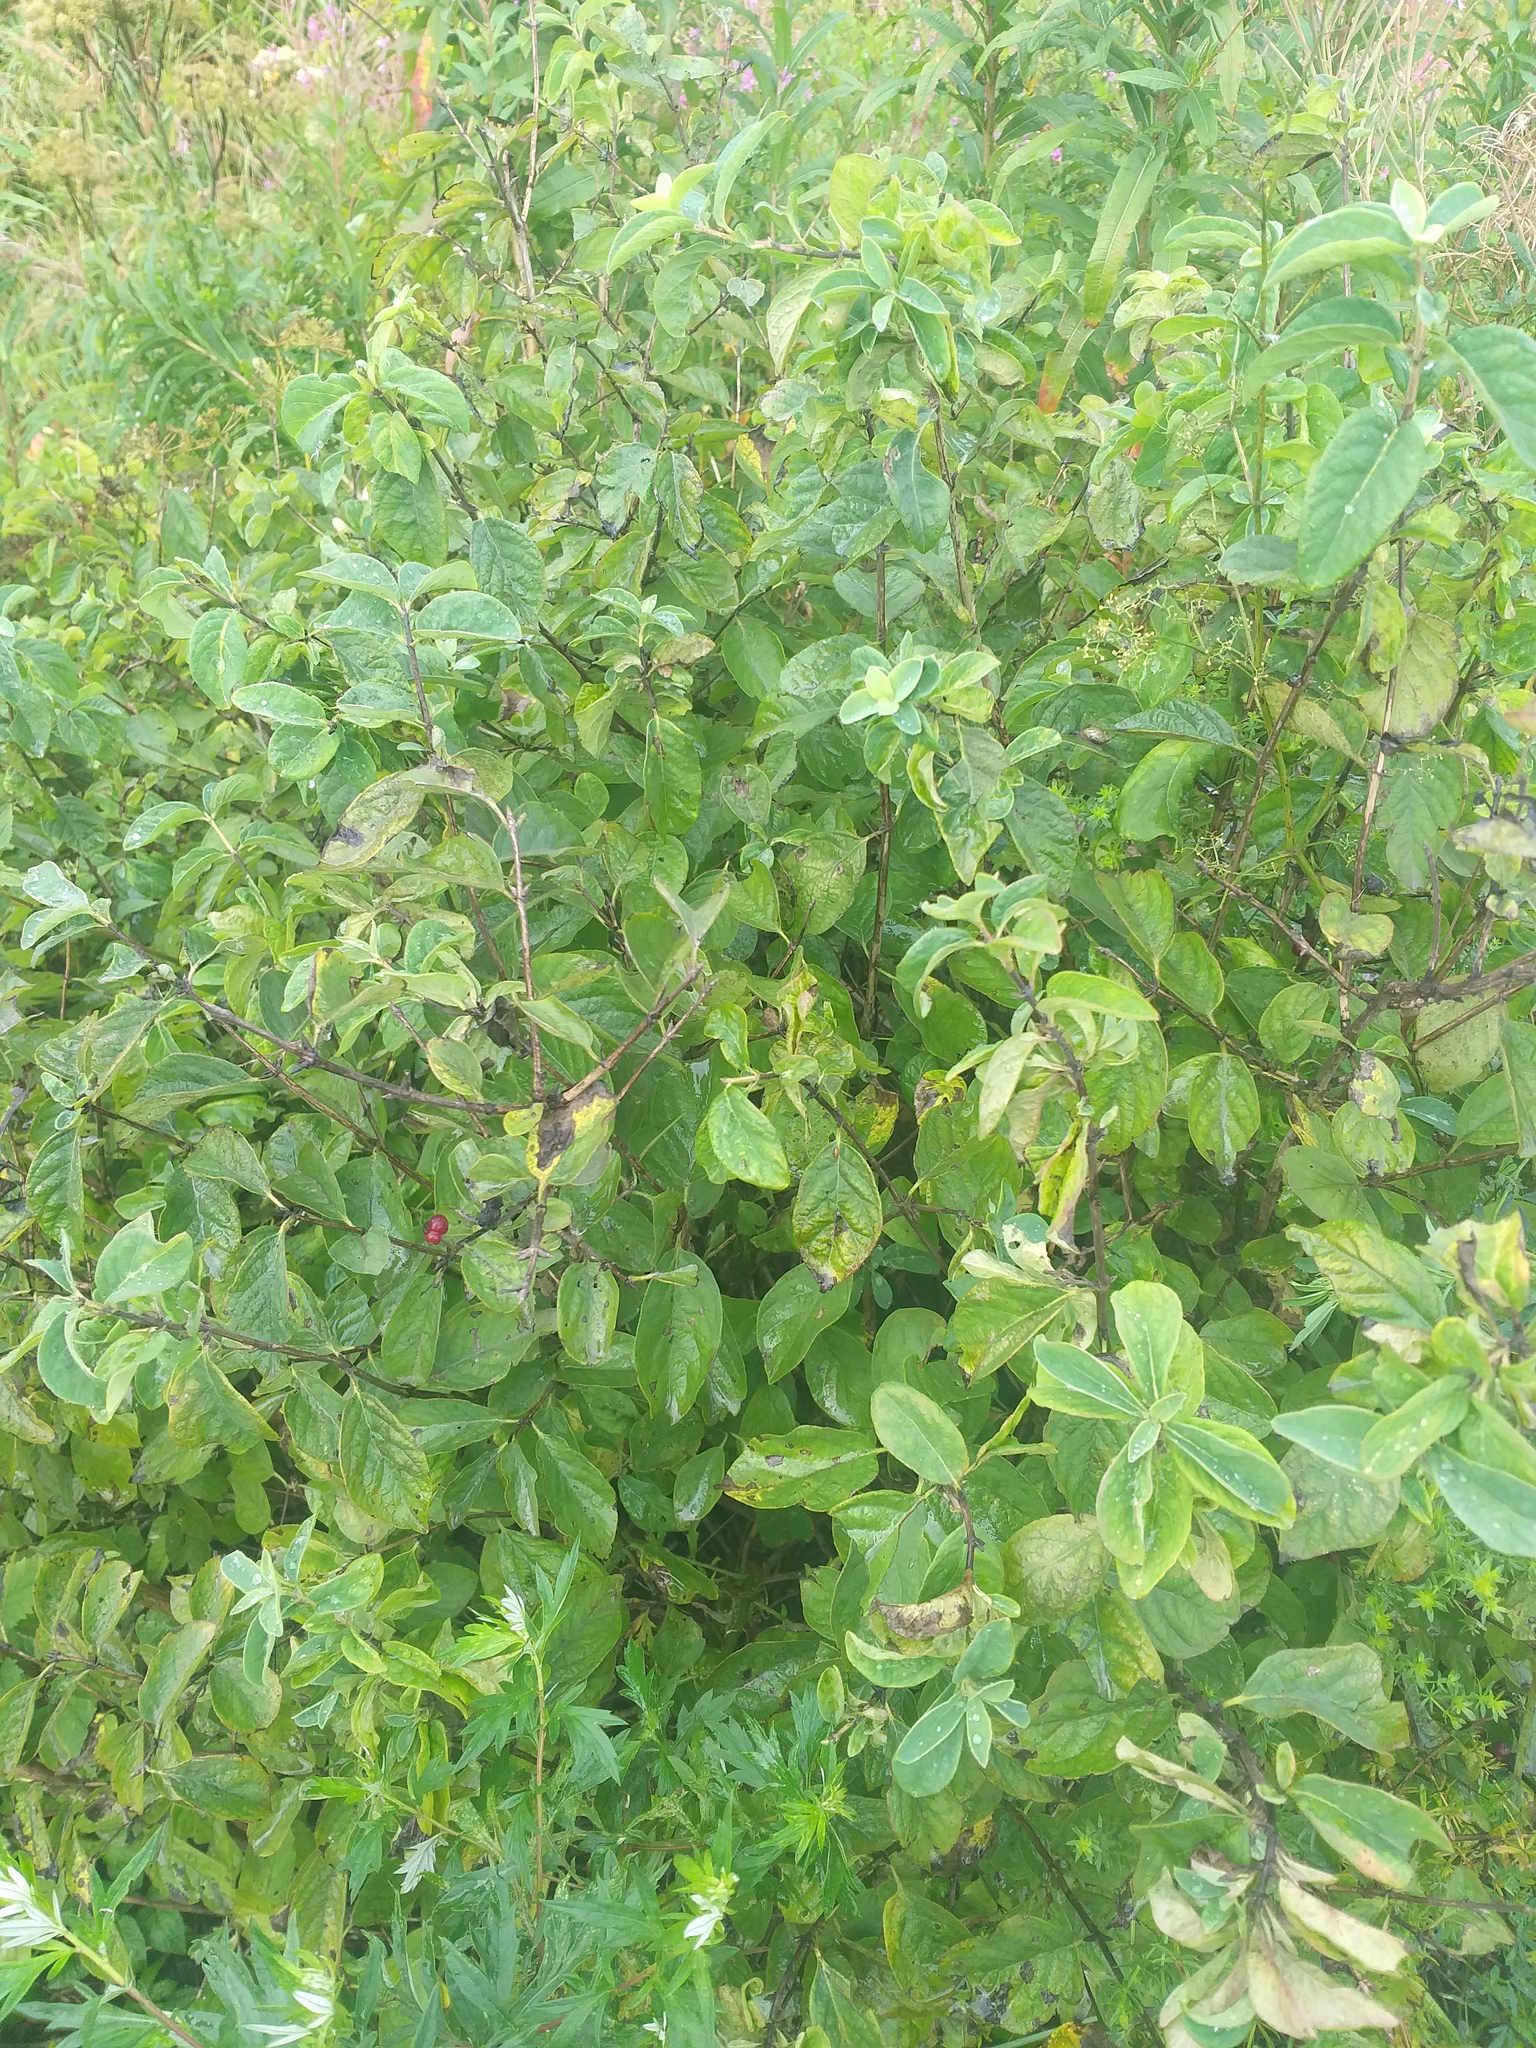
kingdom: Plantae
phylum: Tracheophyta
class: Magnoliopsida
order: Dipsacales
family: Caprifoliaceae
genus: Lonicera
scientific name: Lonicera xylosteum
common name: Fly honeysuckle
